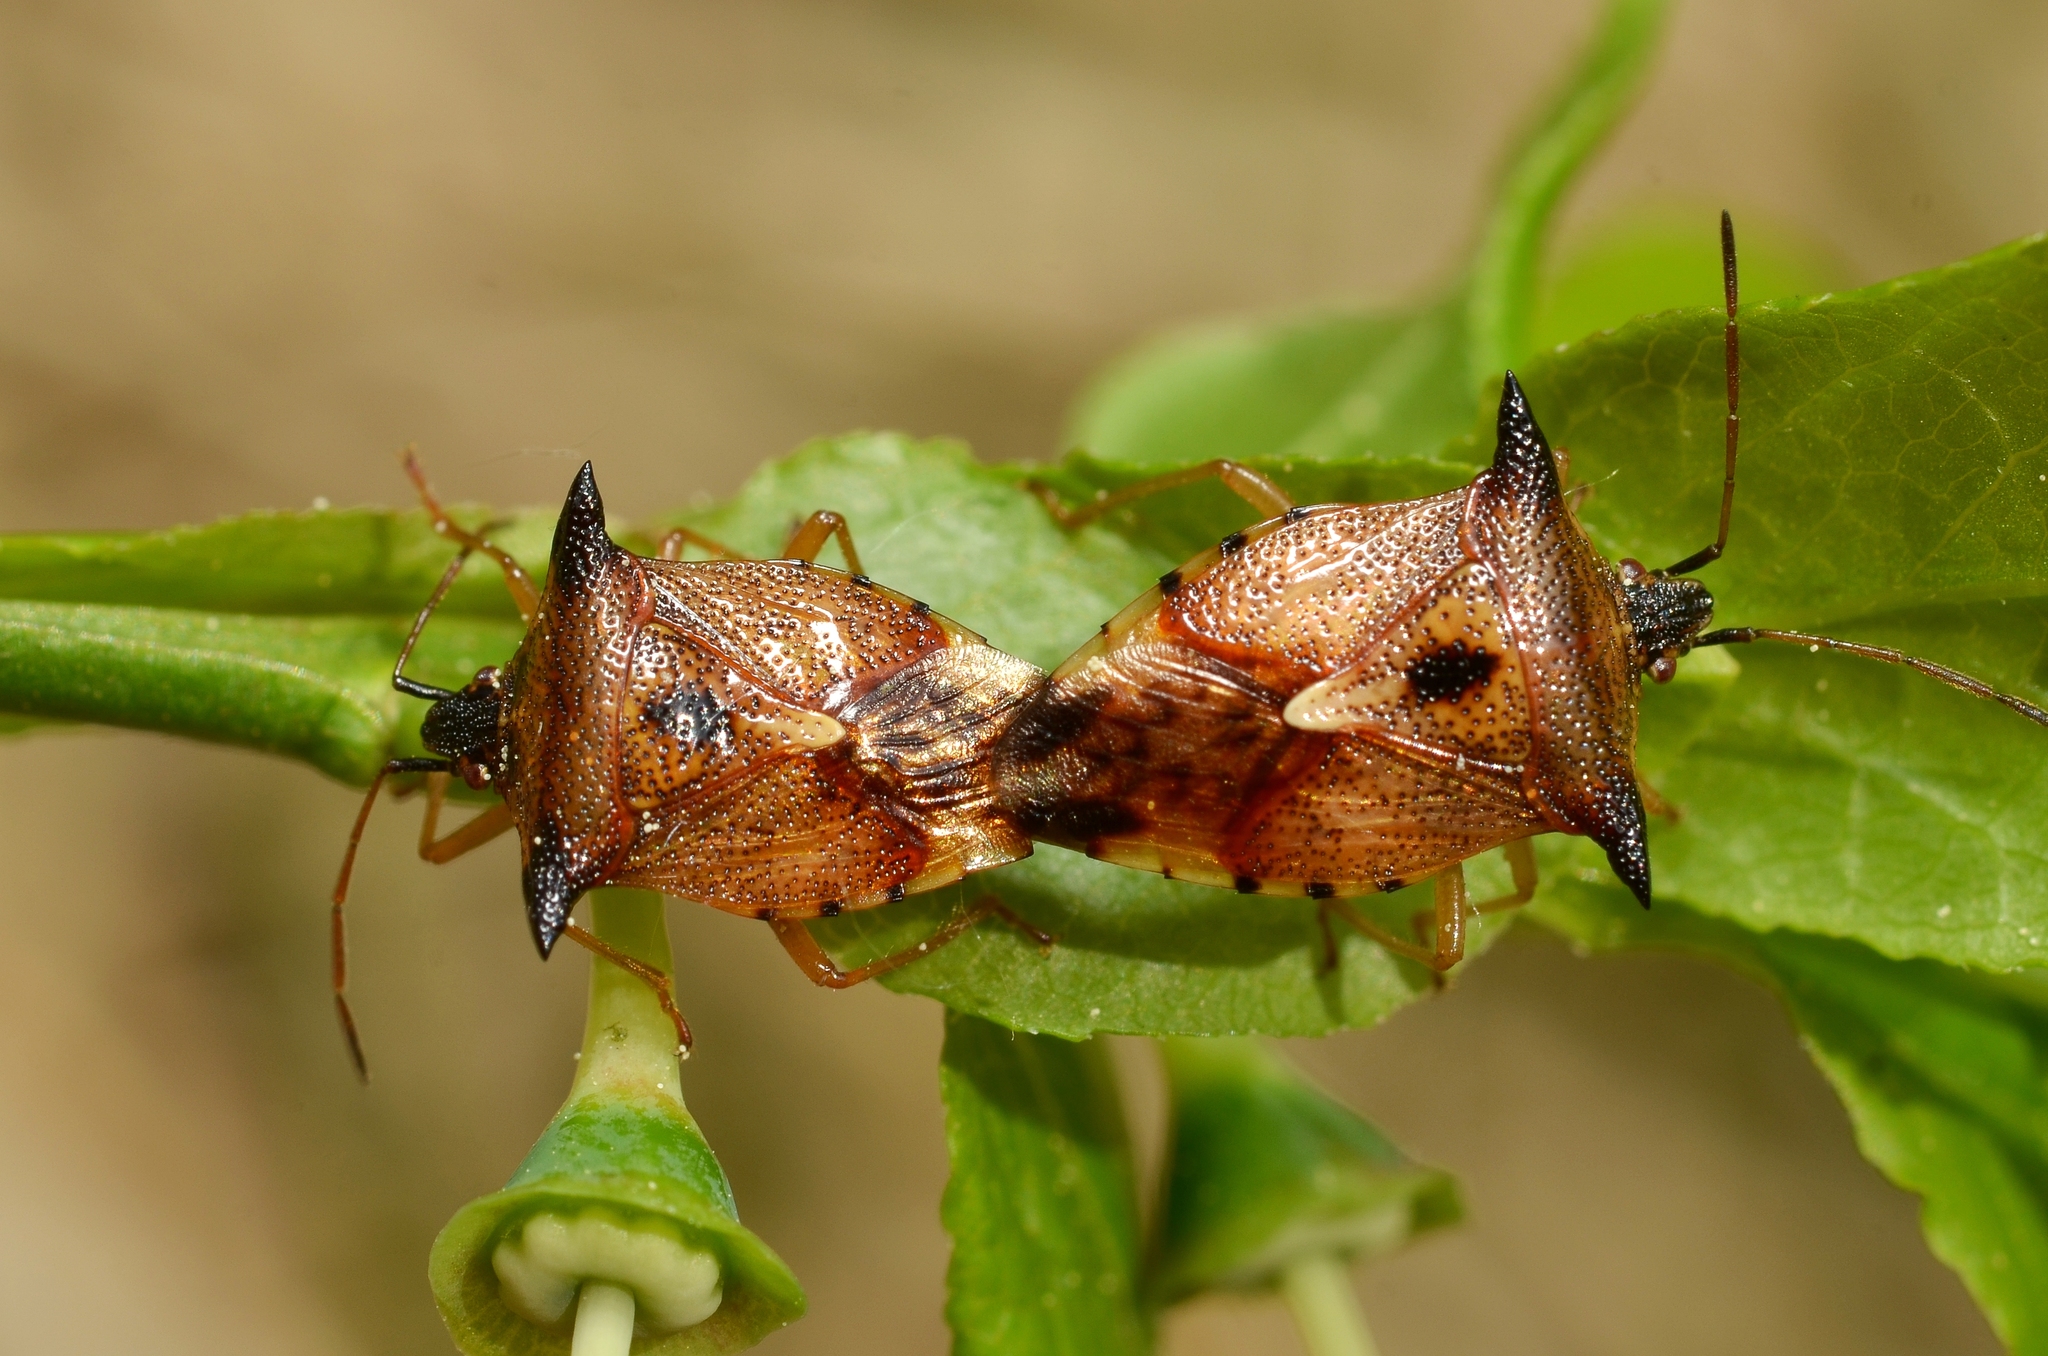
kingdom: Animalia
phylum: Arthropoda
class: Insecta
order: Hemiptera
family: Acanthosomatidae
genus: Elasmucha
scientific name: Elasmucha ferrugata
